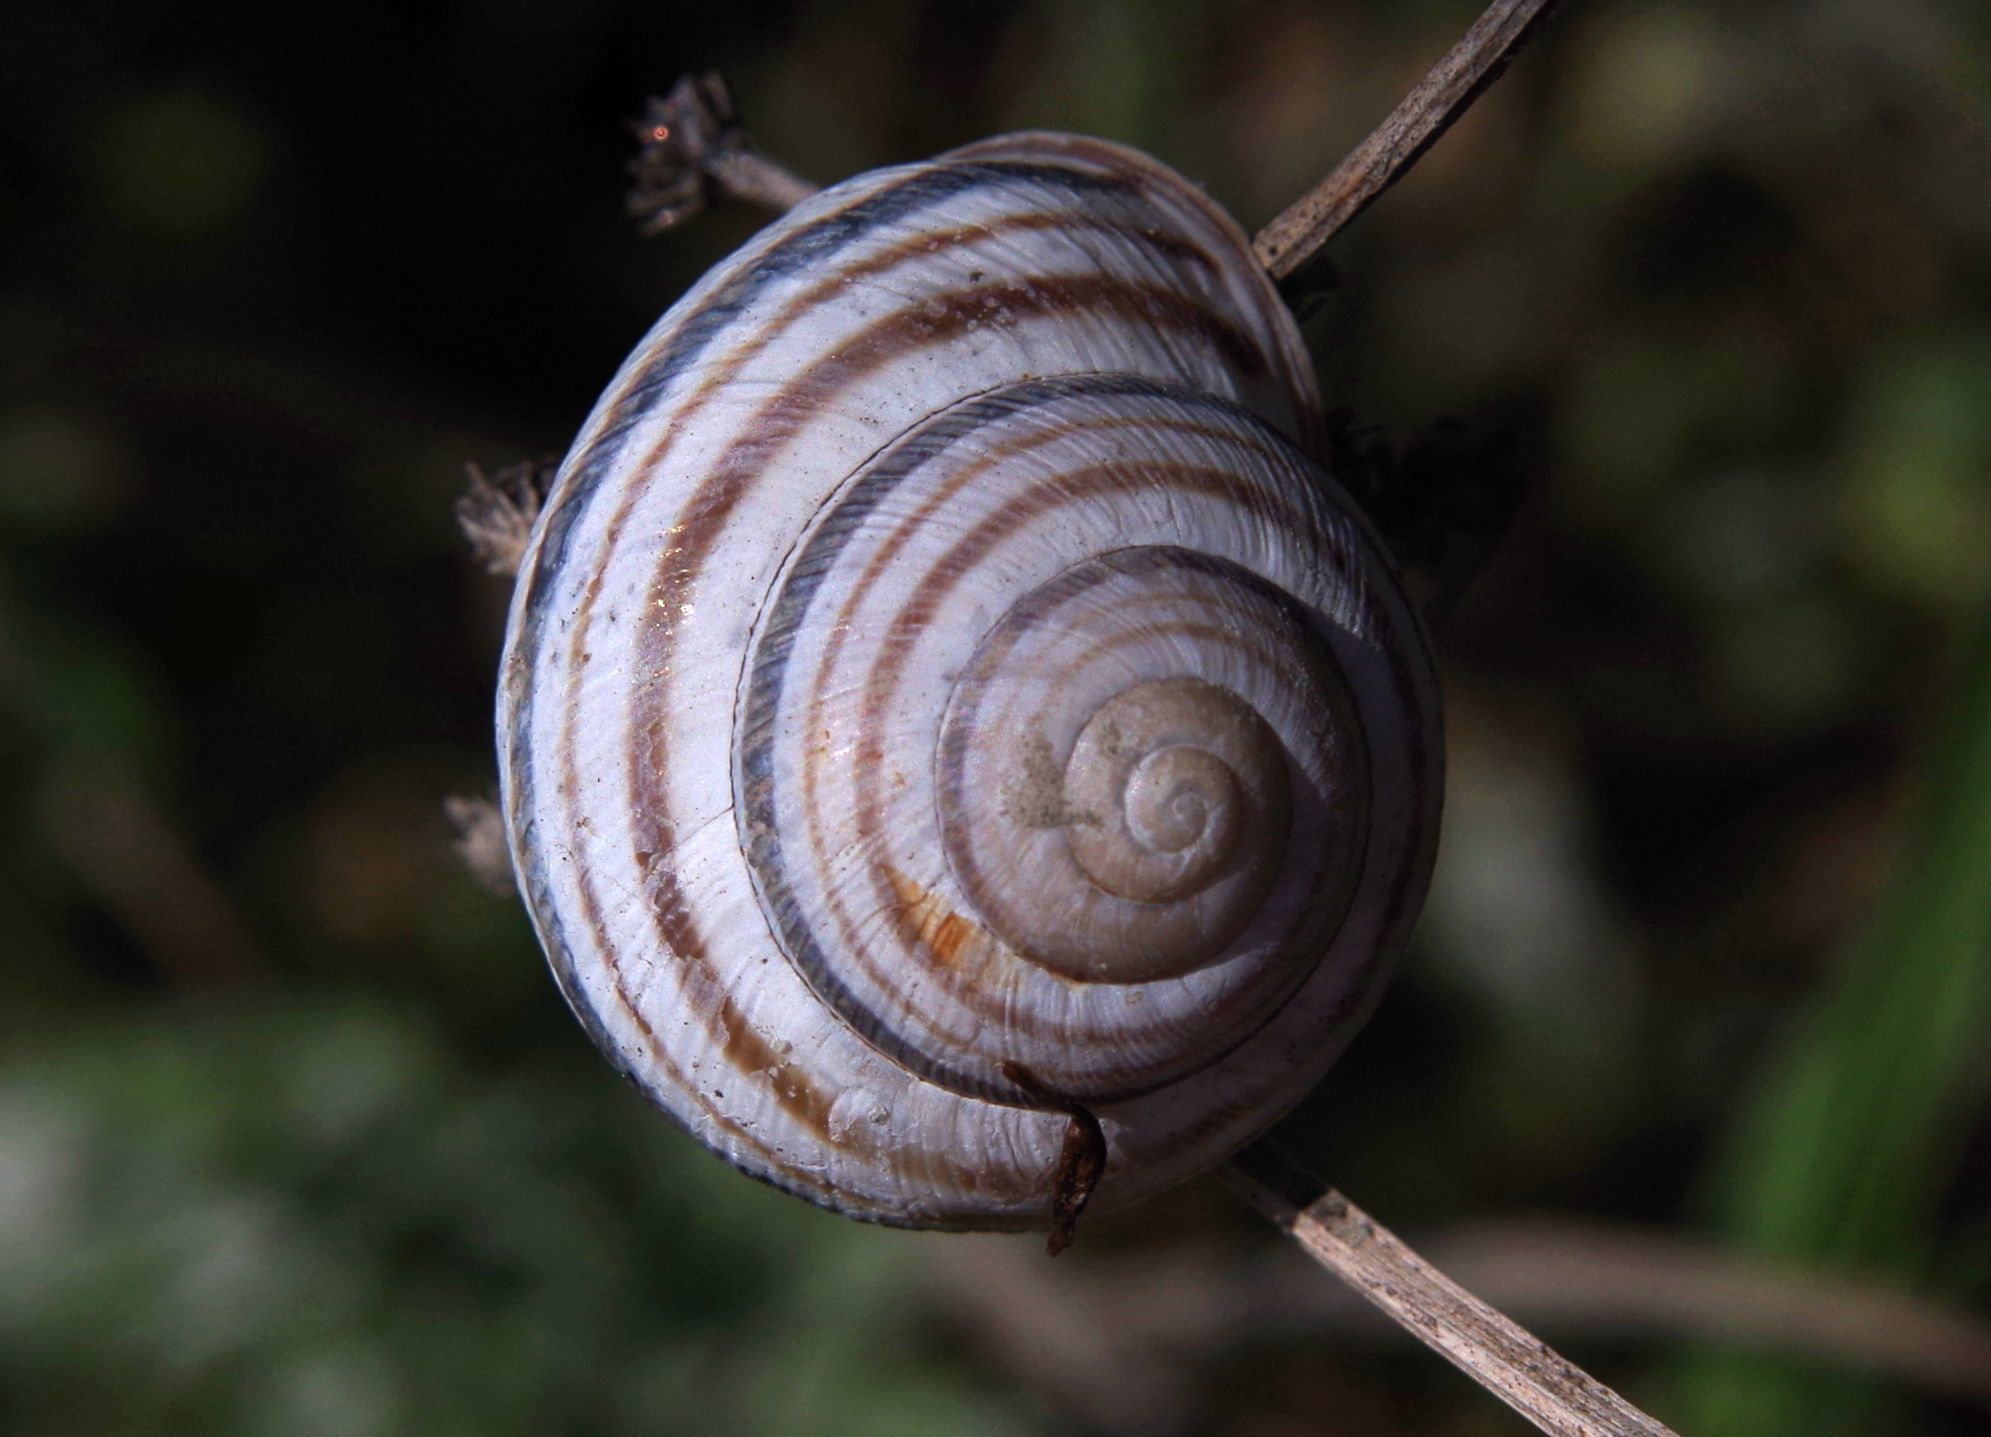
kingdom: Animalia
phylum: Mollusca
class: Gastropoda
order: Stylommatophora
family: Helicidae
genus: Caucasotachea
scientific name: Caucasotachea vindobonensis
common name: European helicid land snail
